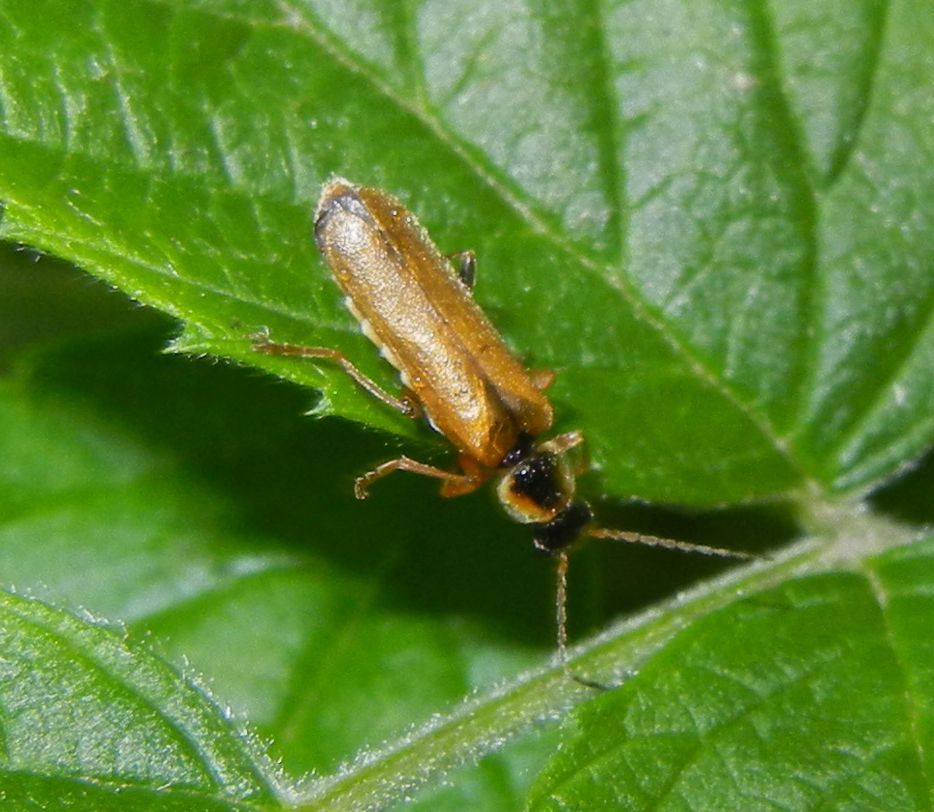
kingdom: Animalia
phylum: Arthropoda
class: Insecta
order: Coleoptera
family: Cantharidae
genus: Cantharis
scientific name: Cantharis decipiens
